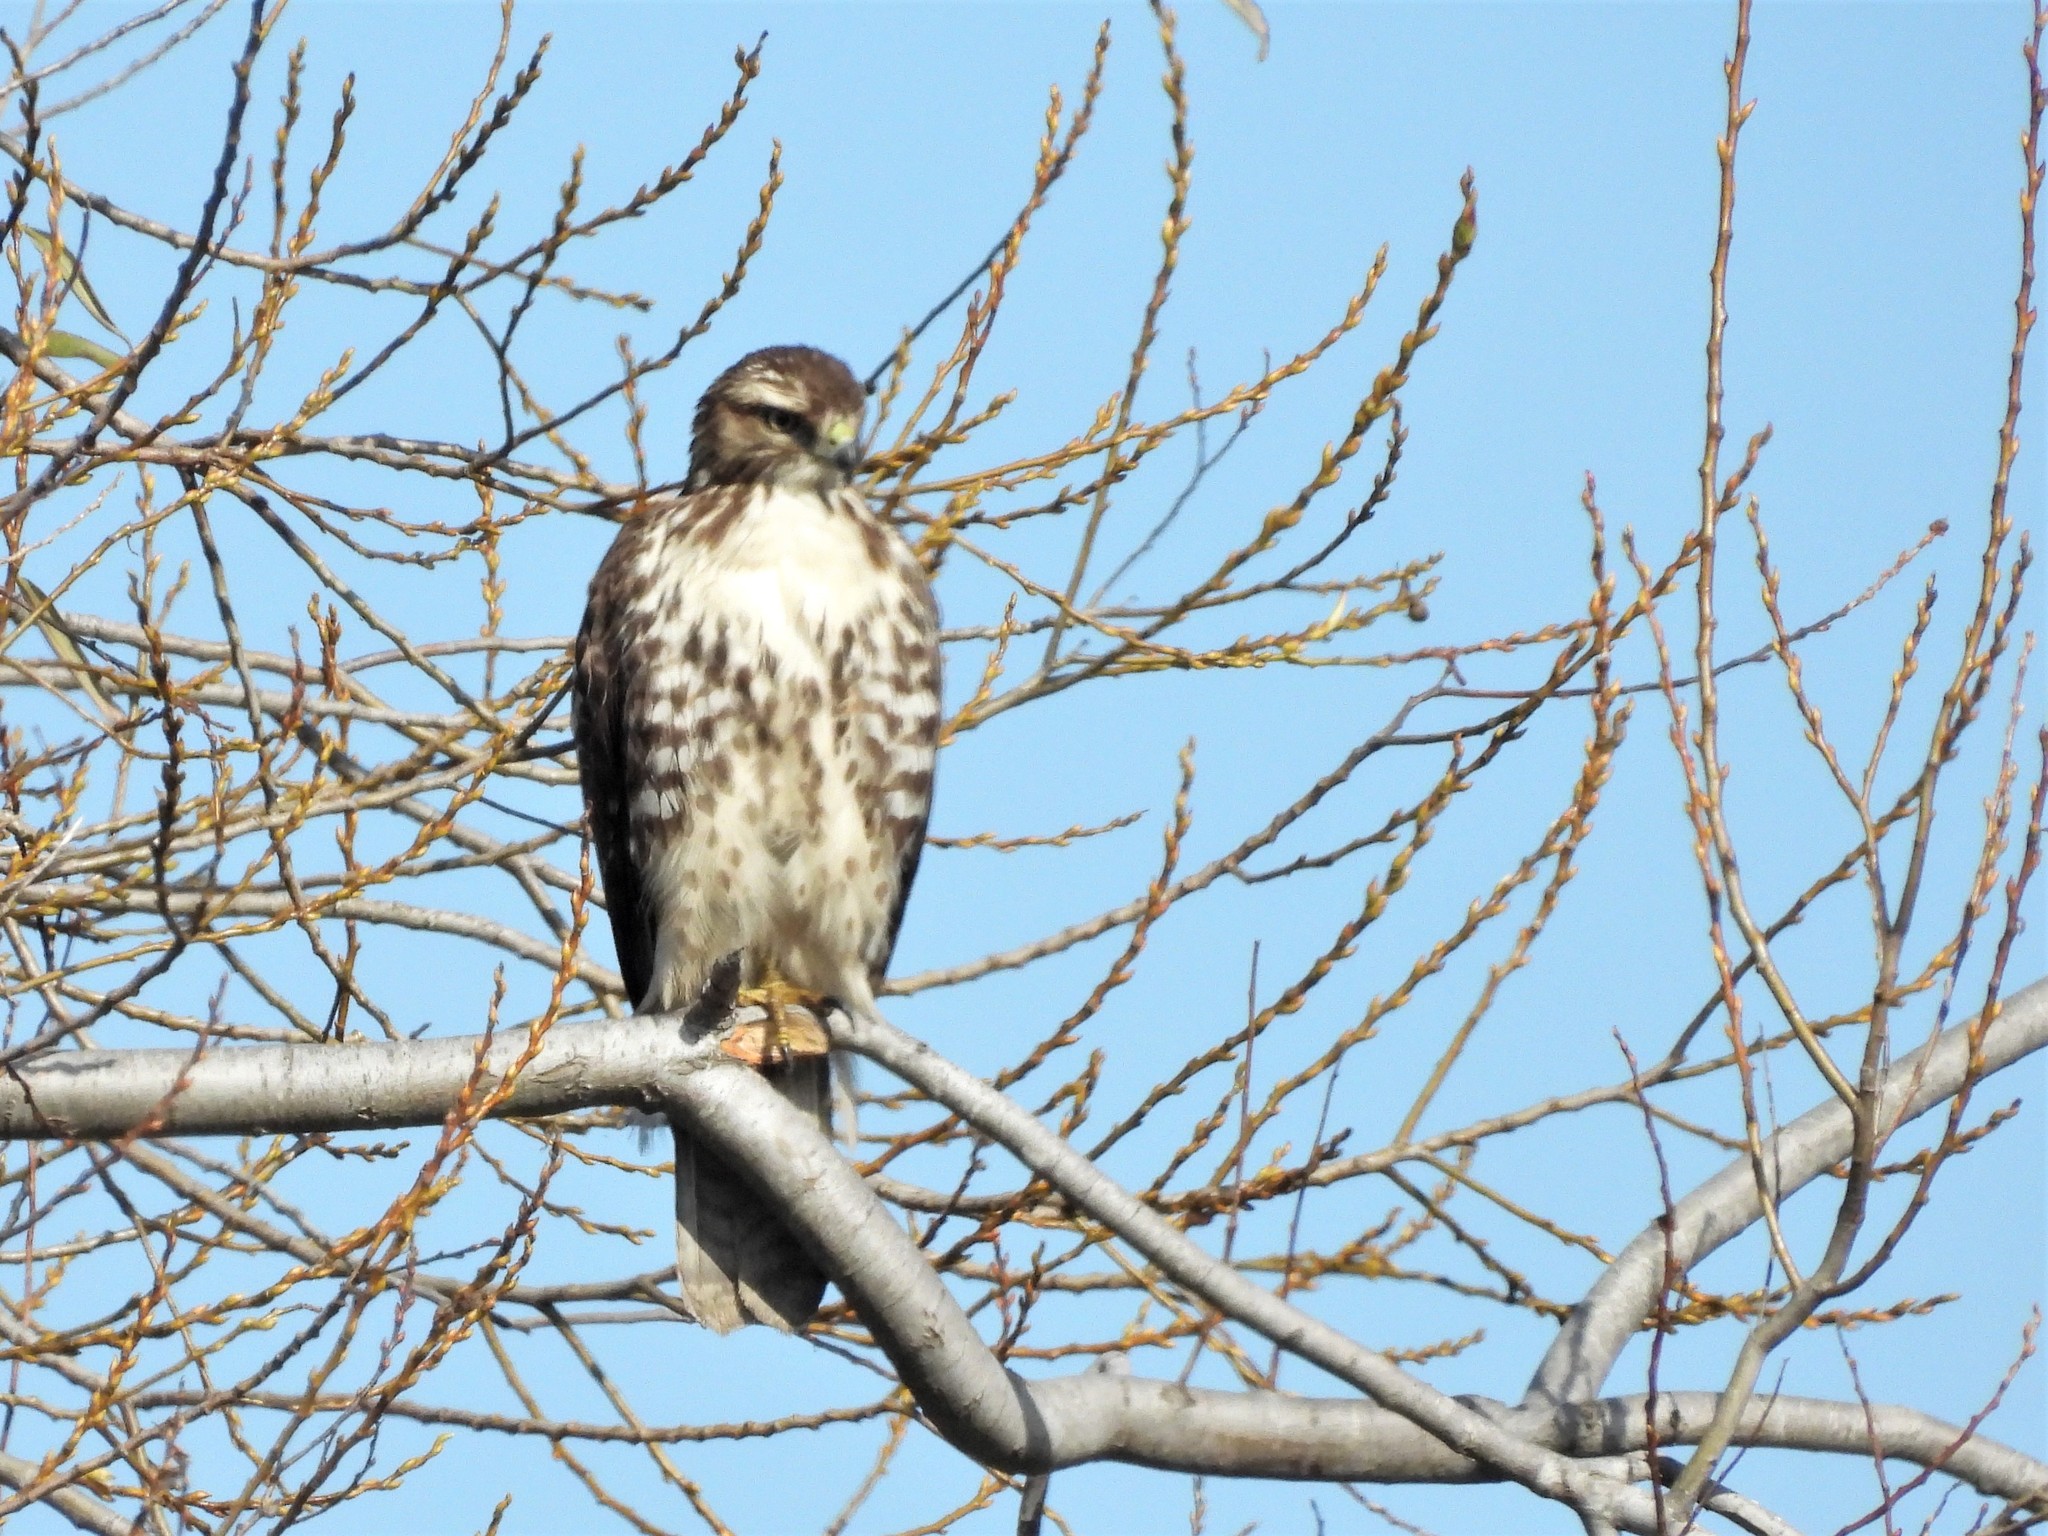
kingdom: Animalia
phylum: Chordata
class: Aves
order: Accipitriformes
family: Accipitridae
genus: Buteo
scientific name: Buteo jamaicensis
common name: Red-tailed hawk
